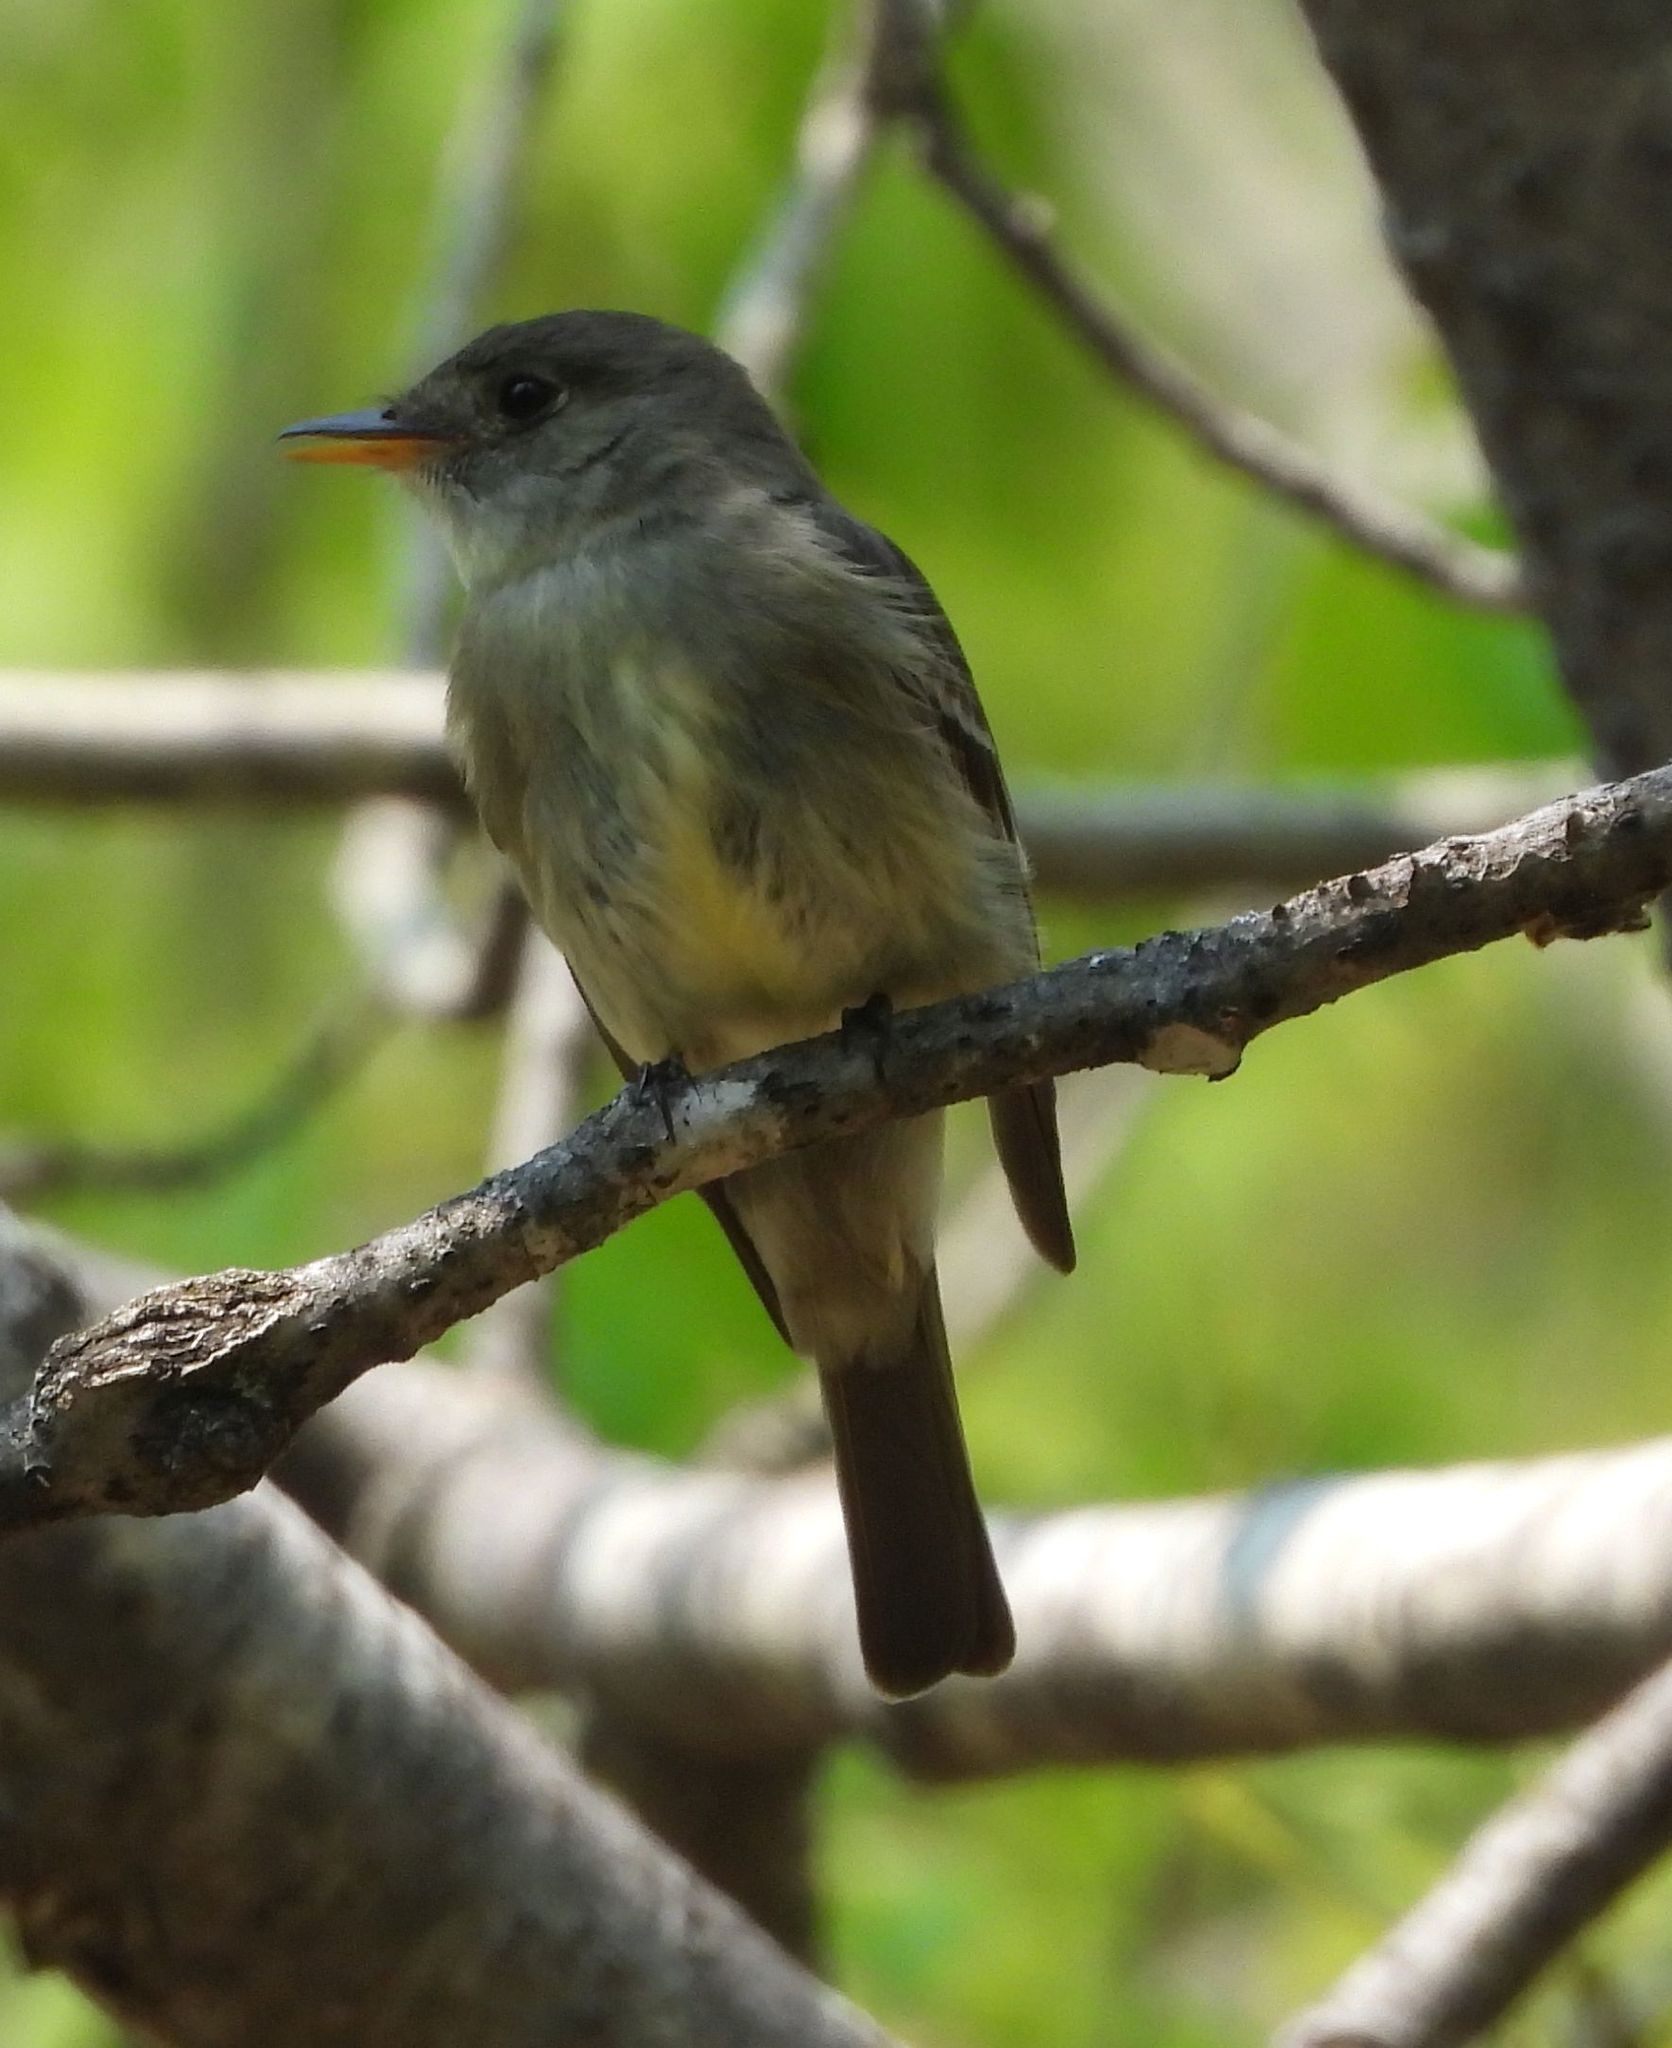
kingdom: Animalia
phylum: Chordata
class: Aves
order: Passeriformes
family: Tyrannidae
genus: Contopus
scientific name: Contopus virens
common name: Eastern wood-pewee
